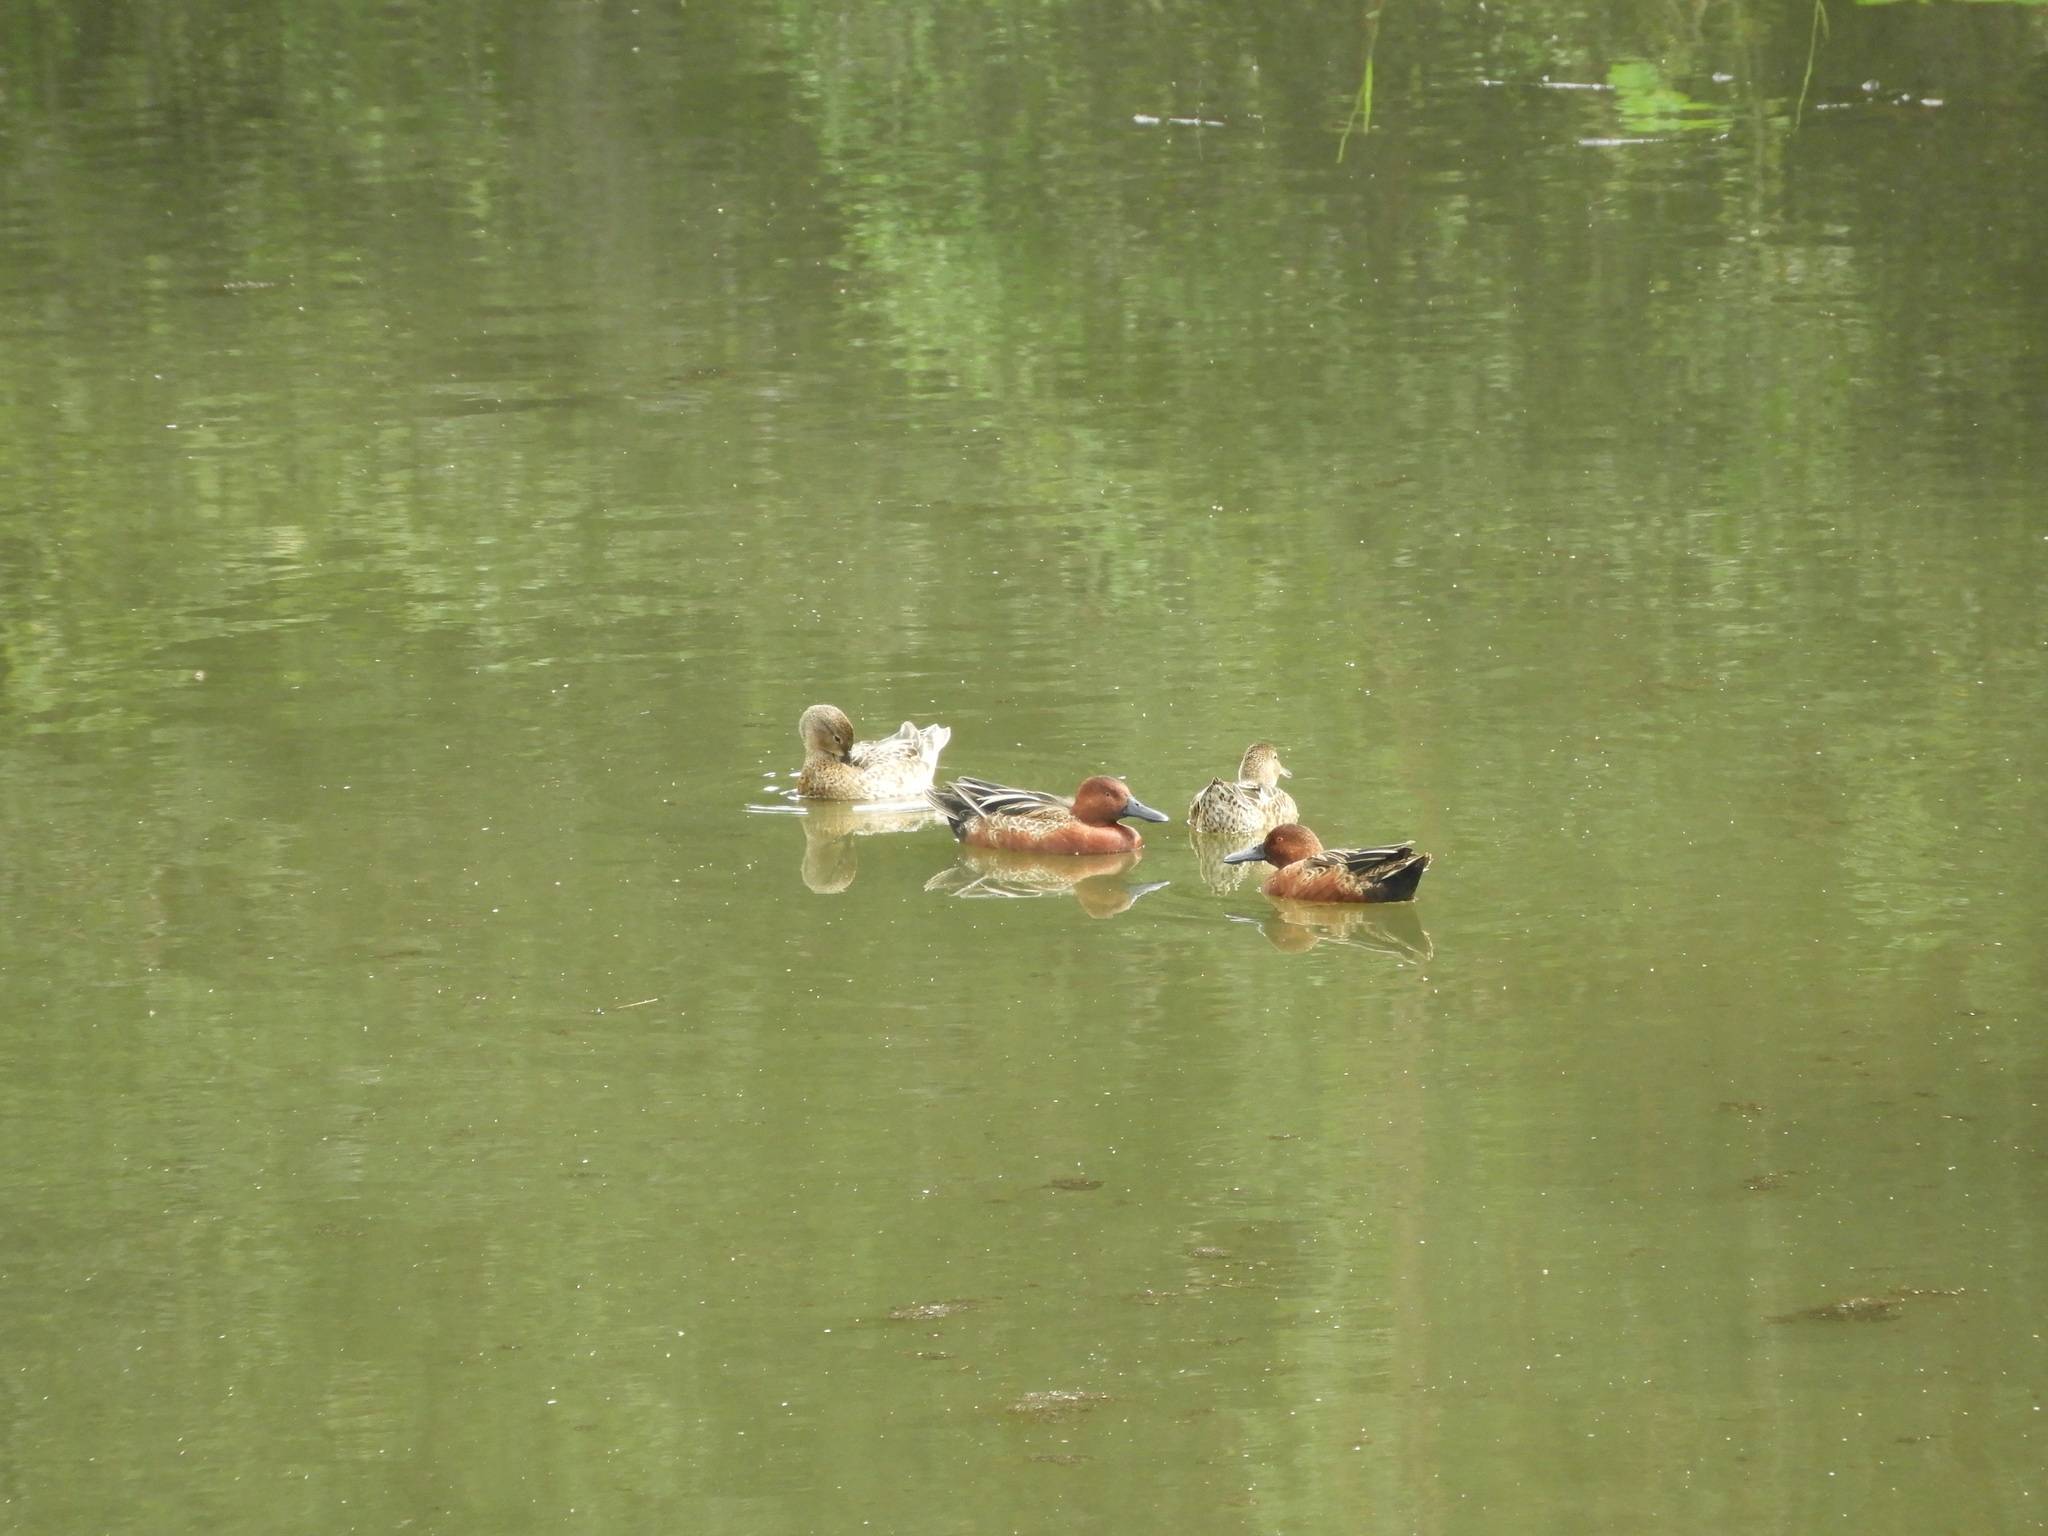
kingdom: Animalia
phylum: Chordata
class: Aves
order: Anseriformes
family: Anatidae
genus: Spatula
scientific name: Spatula cyanoptera
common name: Cinnamon teal
